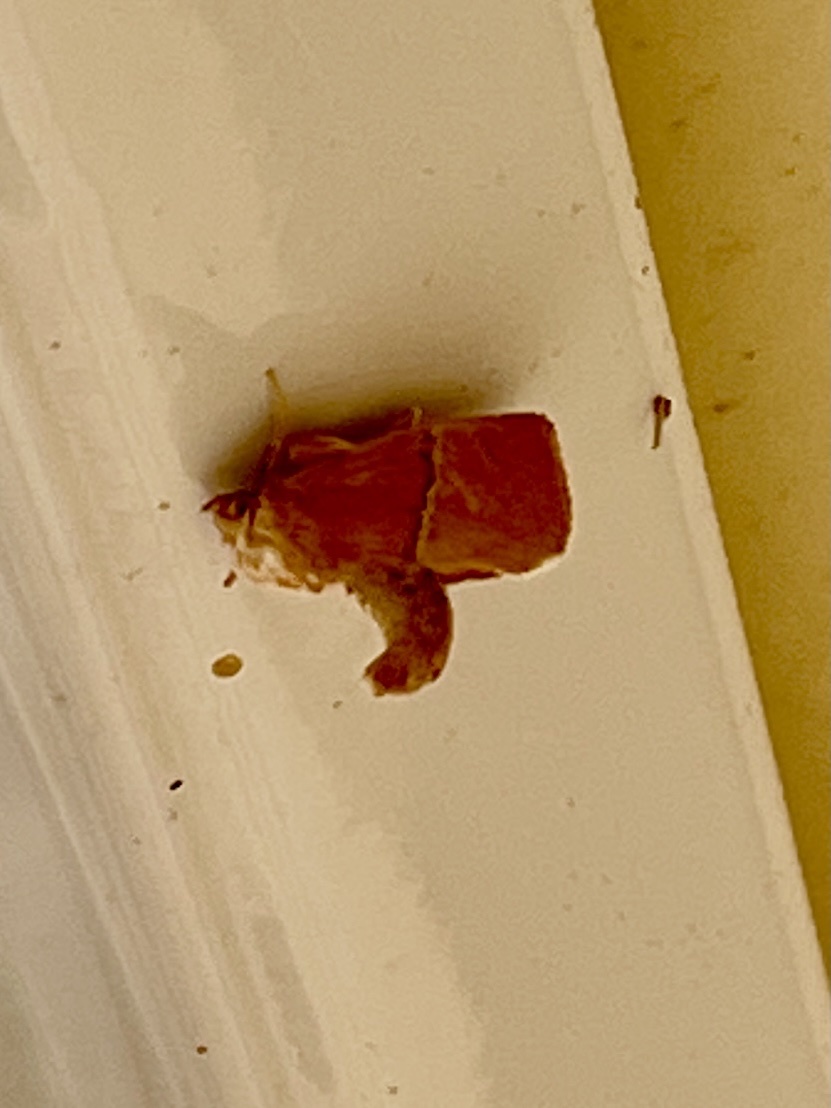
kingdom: Animalia
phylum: Arthropoda
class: Insecta
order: Lepidoptera
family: Limacodidae
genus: Apoda
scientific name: Apoda latomia
